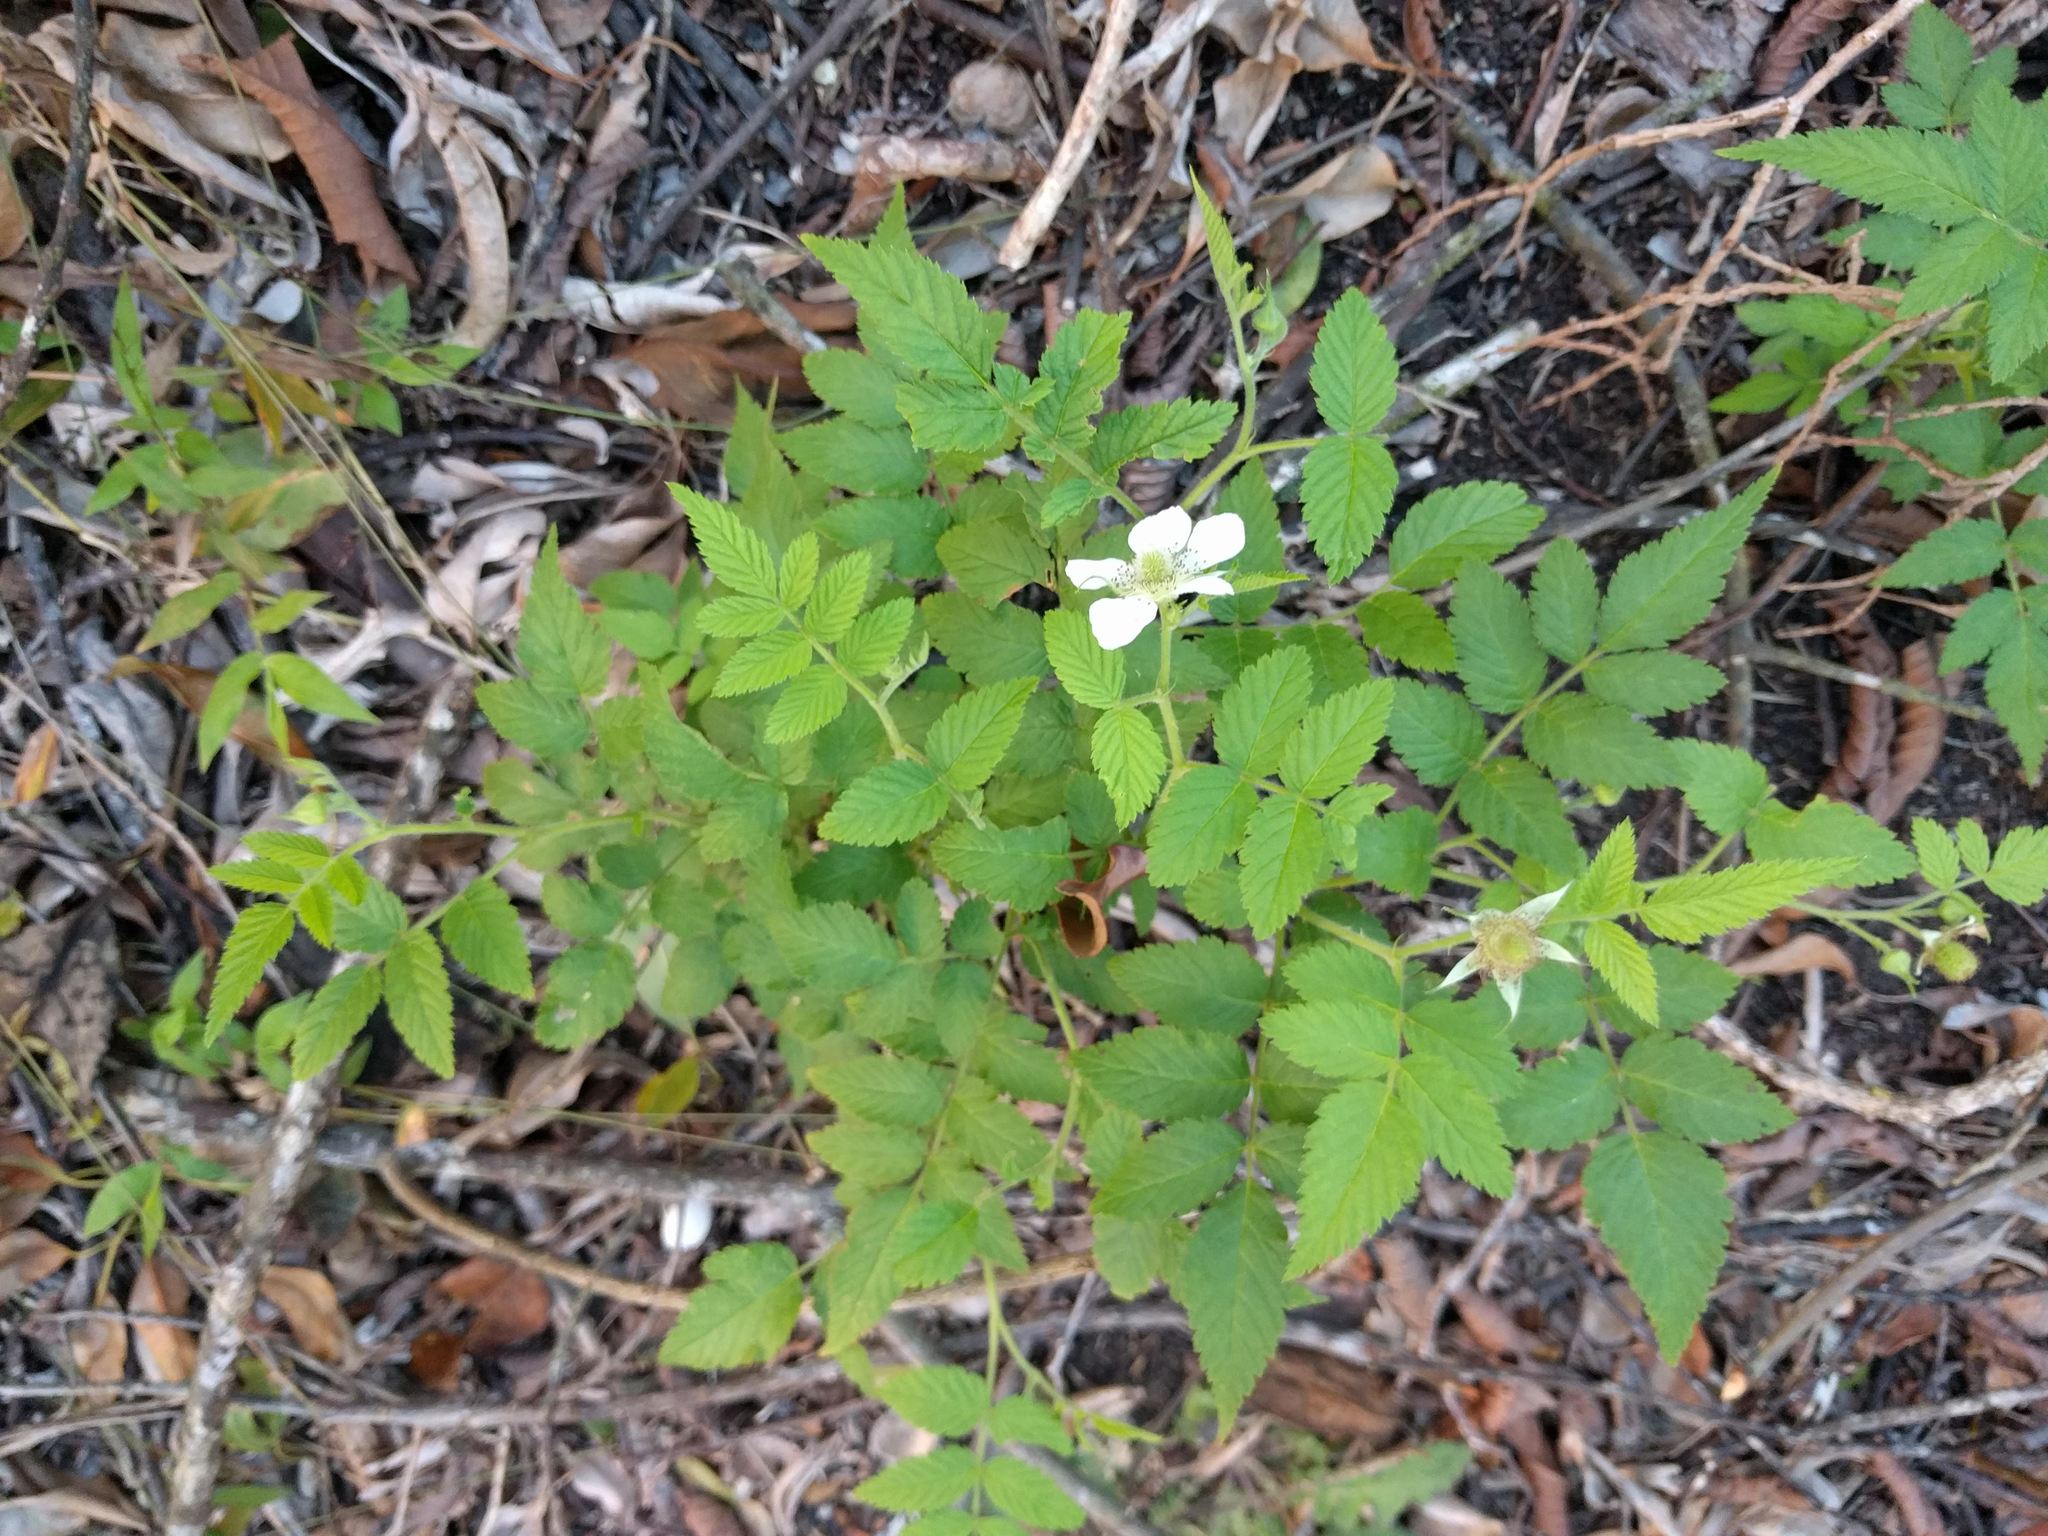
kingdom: Plantae
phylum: Tracheophyta
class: Magnoliopsida
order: Rosales
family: Rosaceae
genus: Rubus
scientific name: Rubus rosifolius
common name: Roseleaf raspberry
